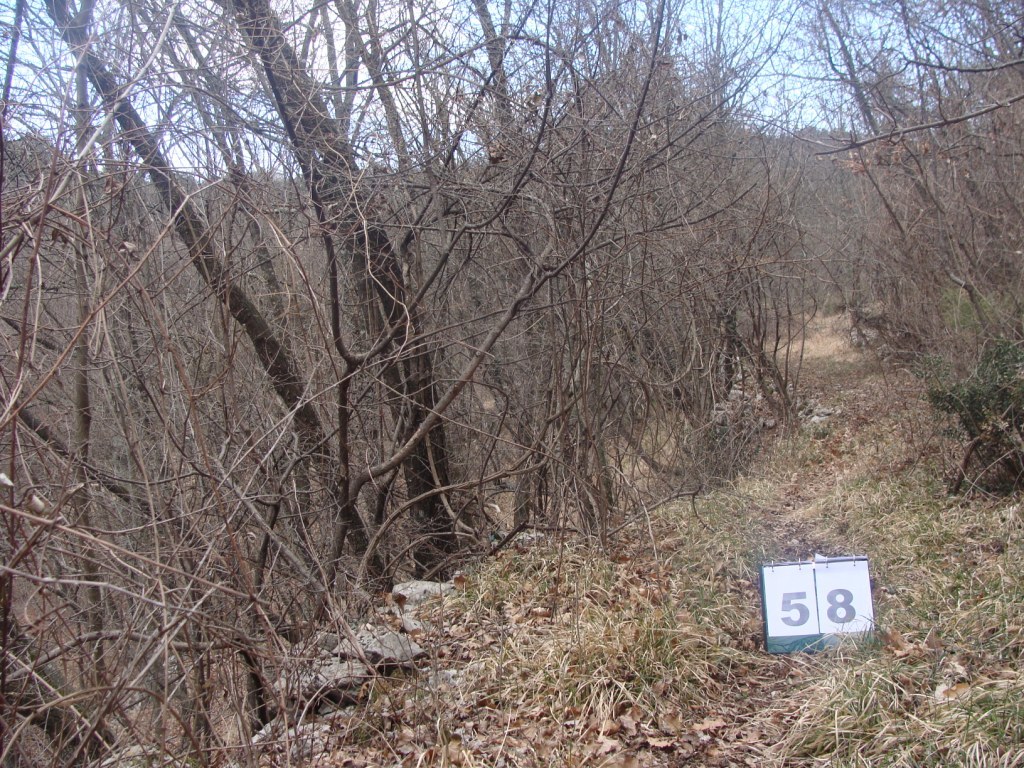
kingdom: Plantae
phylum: Tracheophyta
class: Magnoliopsida
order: Cornales
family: Cornaceae
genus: Cornus
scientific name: Cornus mas
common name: Cornelian-cherry
